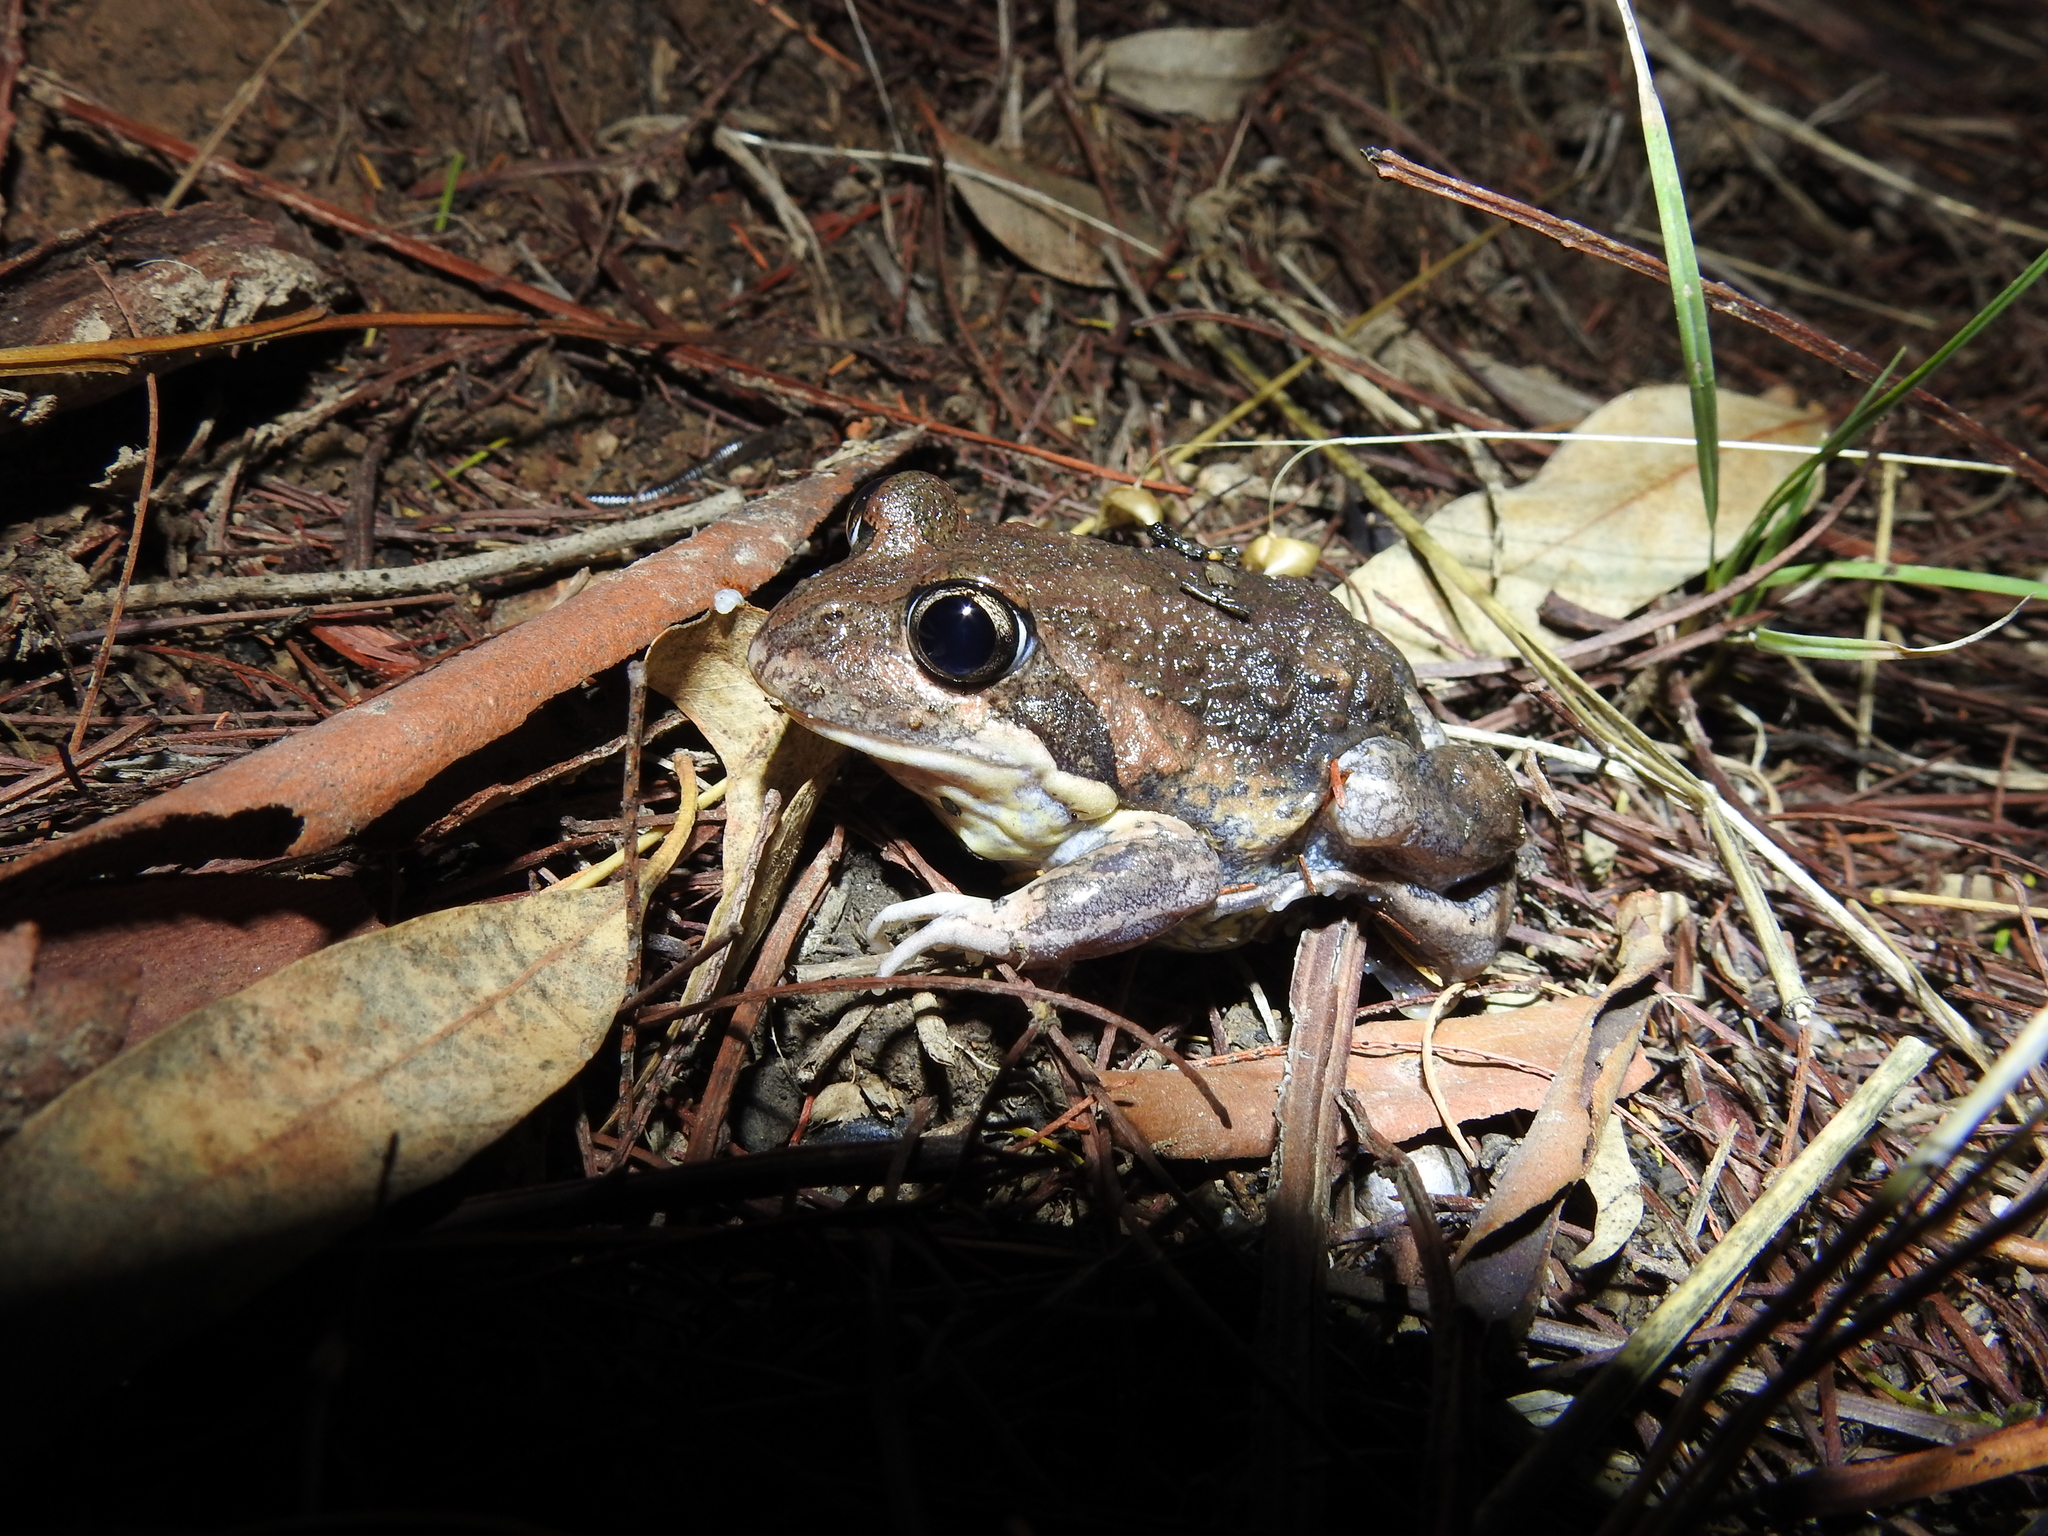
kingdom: Animalia
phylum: Chordata
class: Amphibia
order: Anura
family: Limnodynastidae
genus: Limnodynastes
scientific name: Limnodynastes dumerilii
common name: Banjo frog
